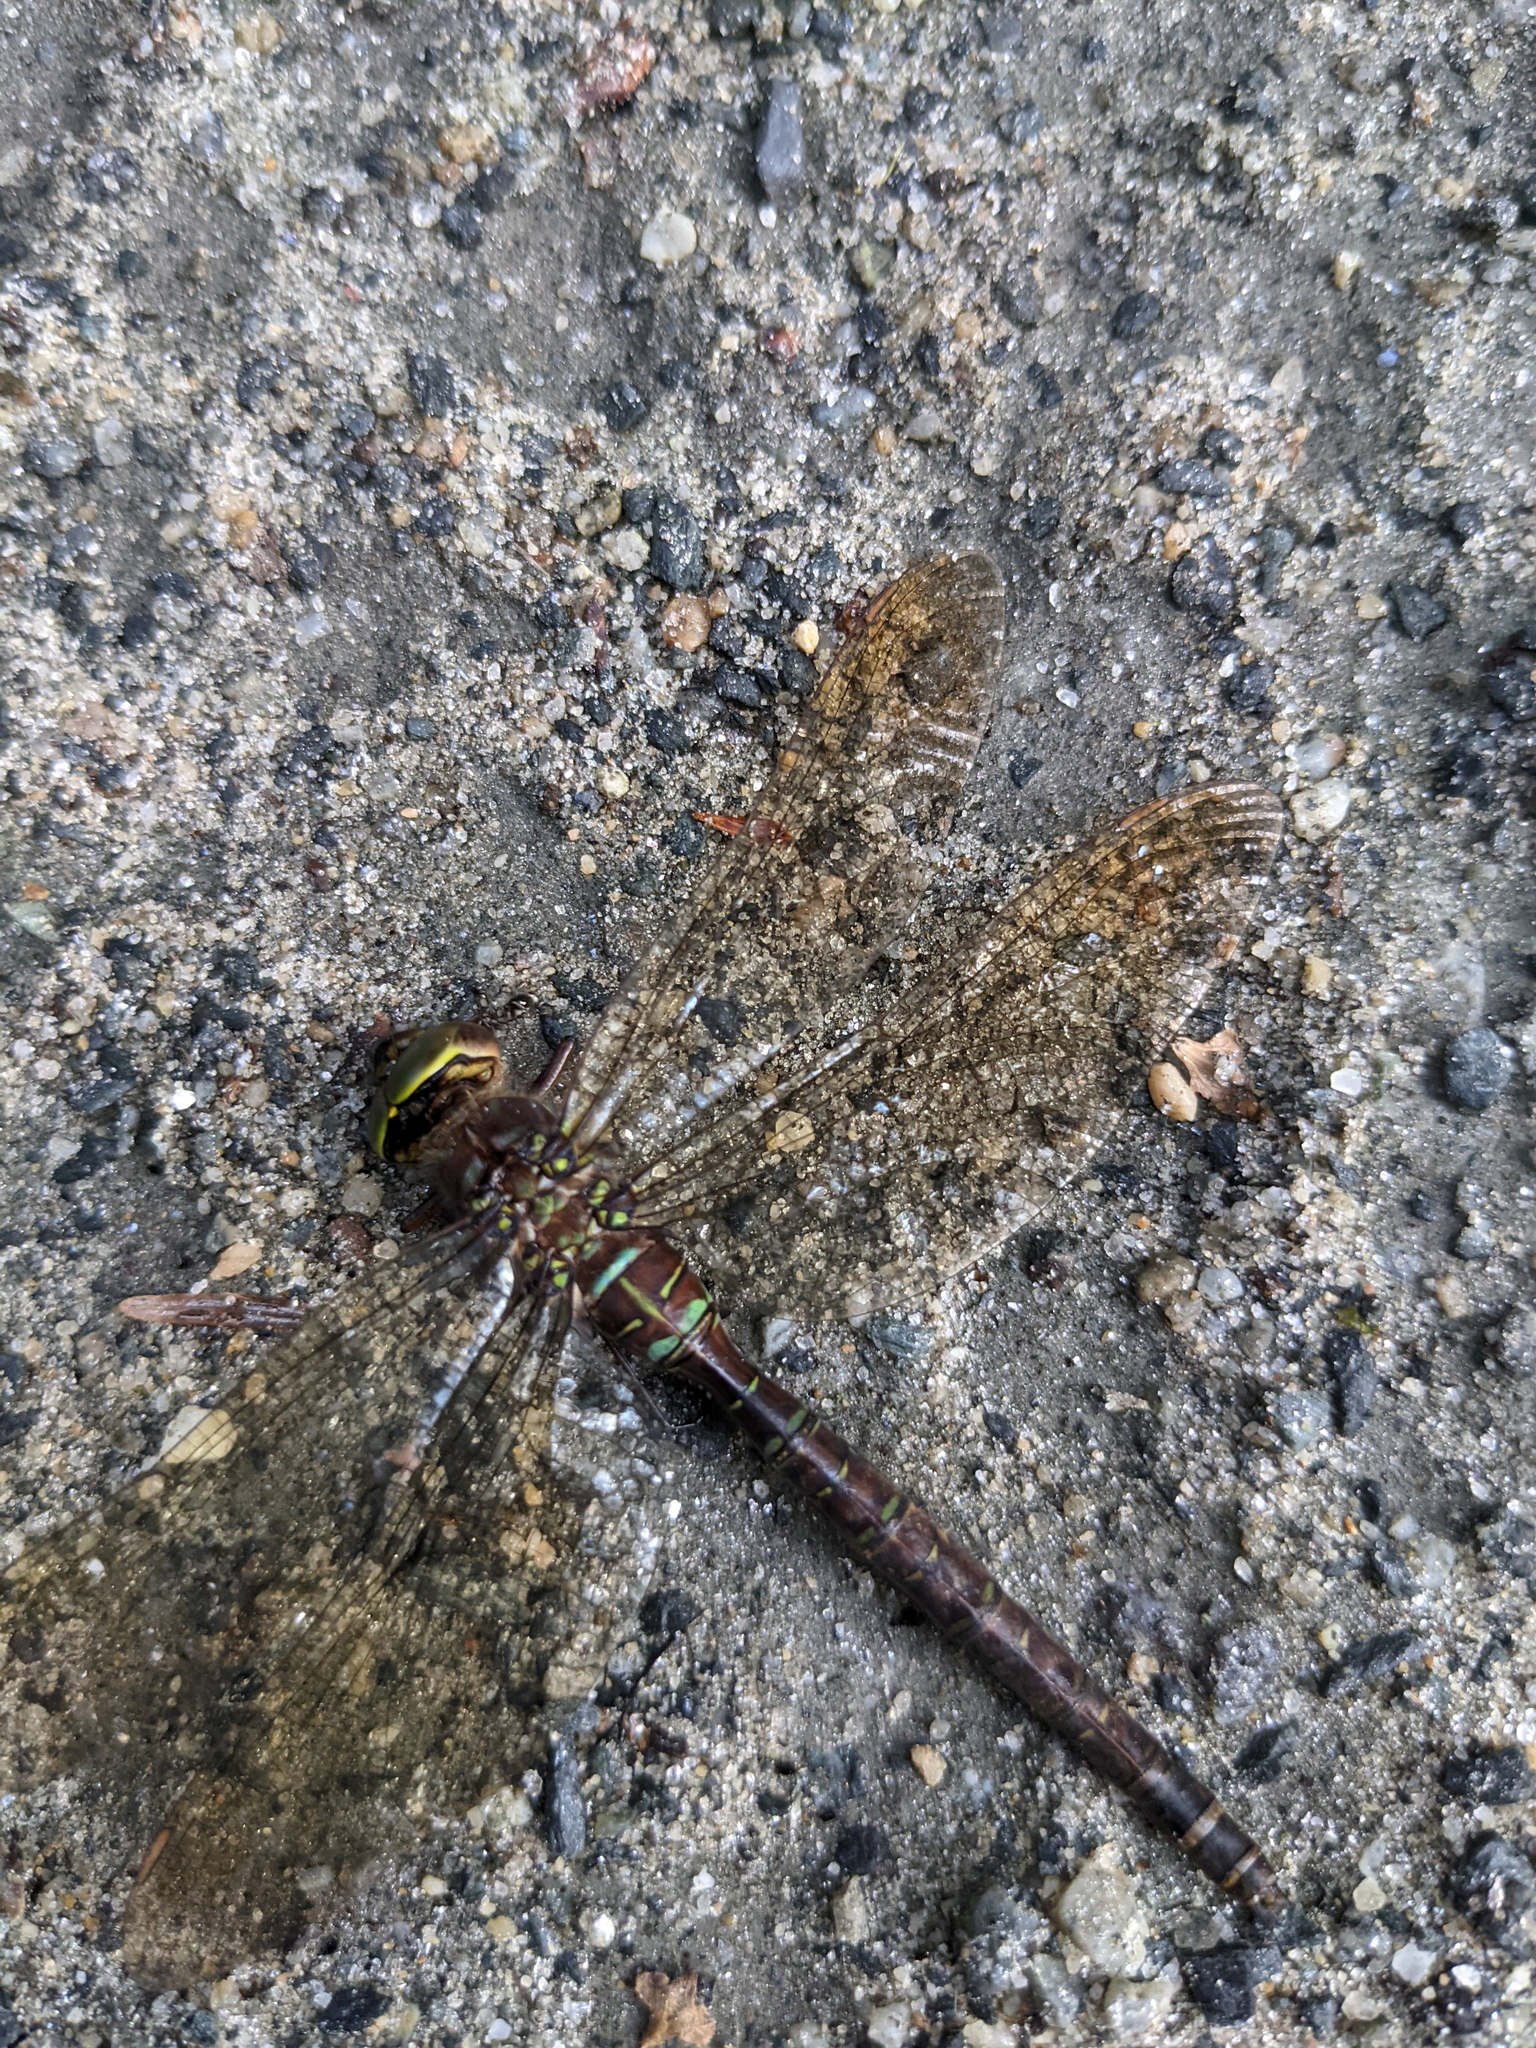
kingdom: Animalia
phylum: Arthropoda
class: Insecta
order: Odonata
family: Aeshnidae
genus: Aeshna
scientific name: Aeshna umbrosa
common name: Shadow darner
